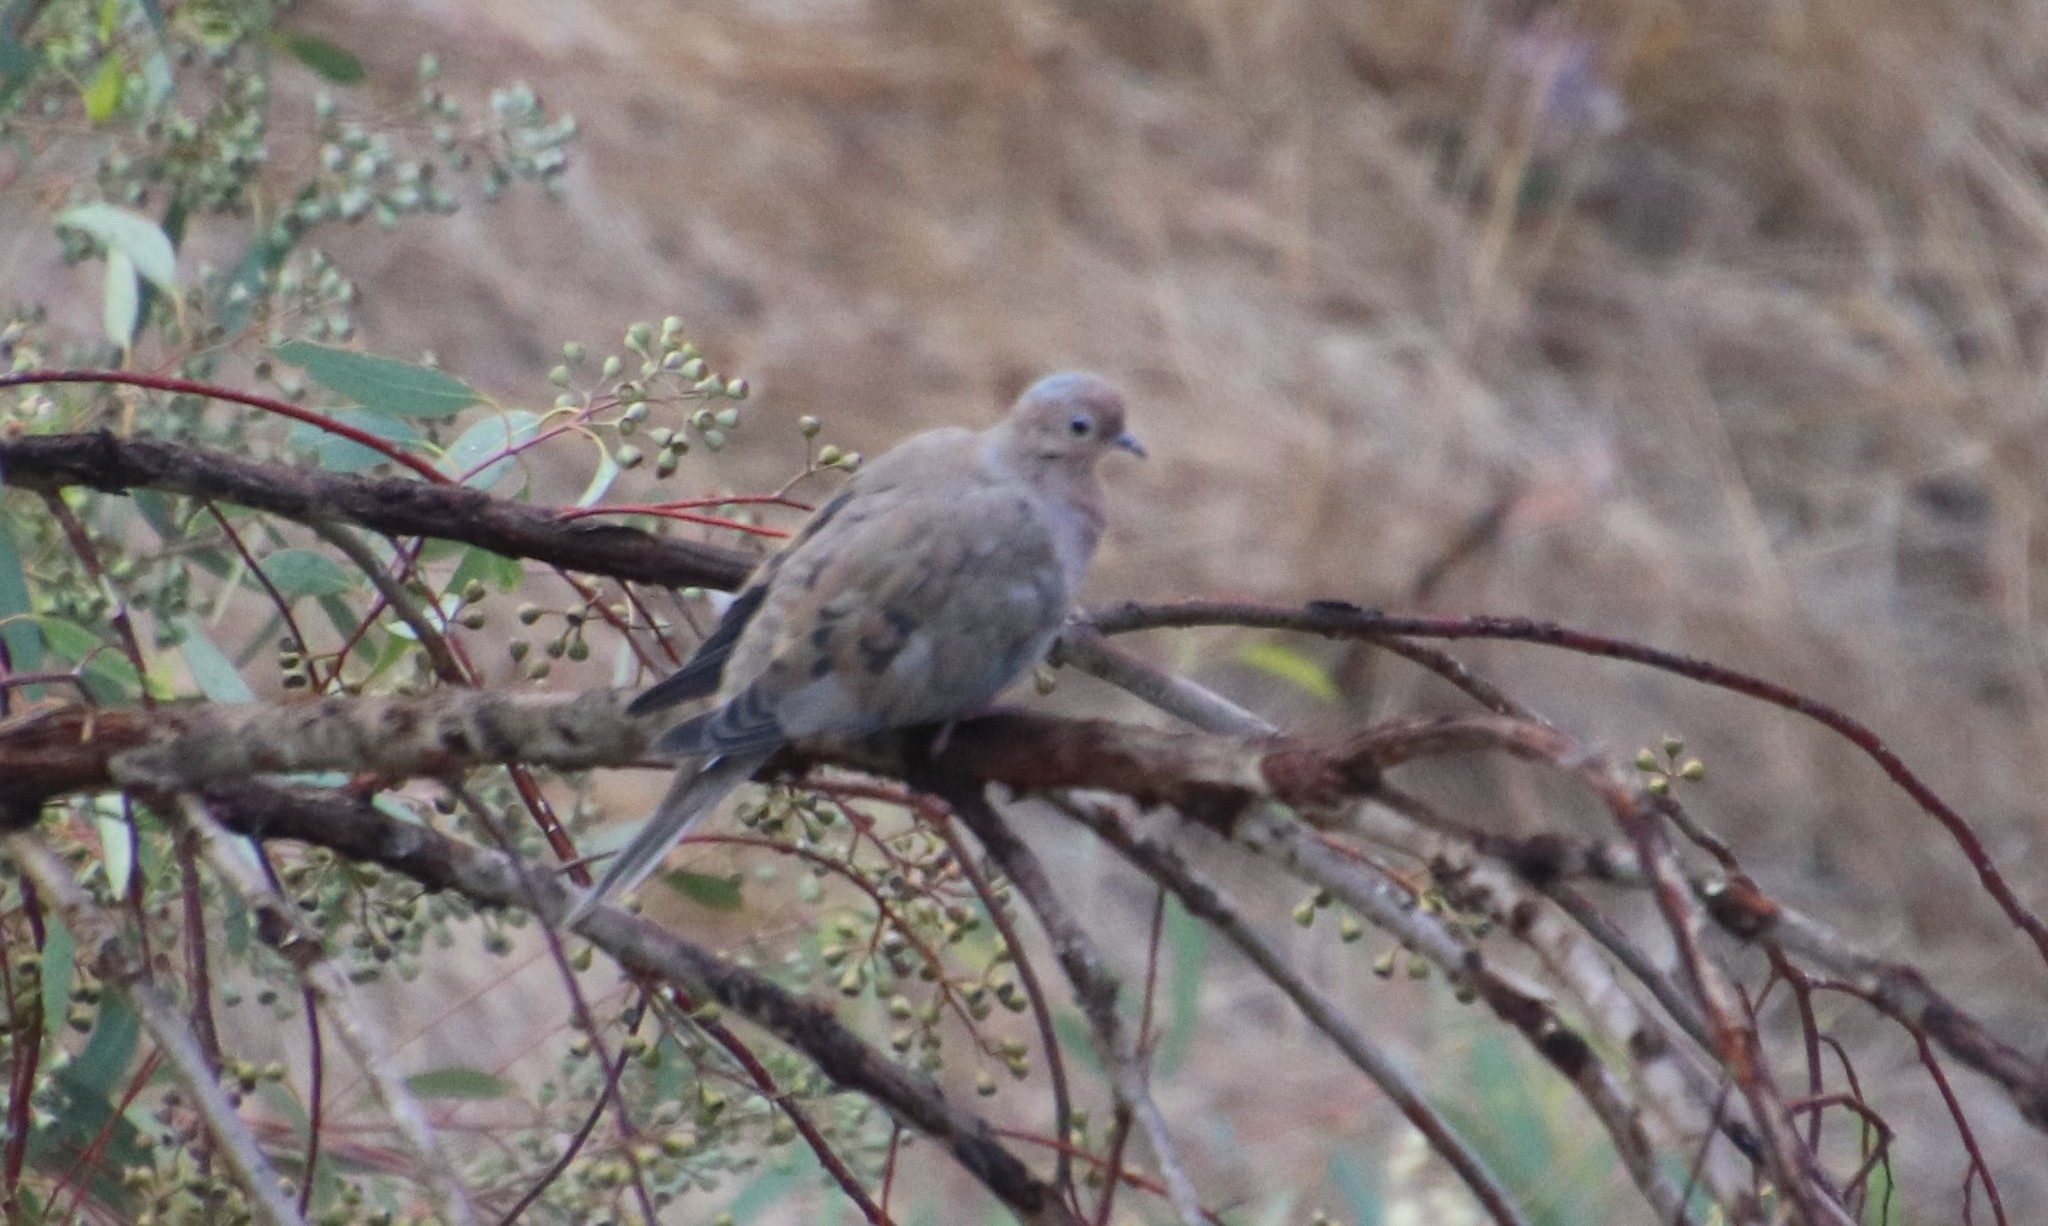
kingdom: Animalia
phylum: Chordata
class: Aves
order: Columbiformes
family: Columbidae
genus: Zenaida
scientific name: Zenaida macroura
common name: Mourning dove
